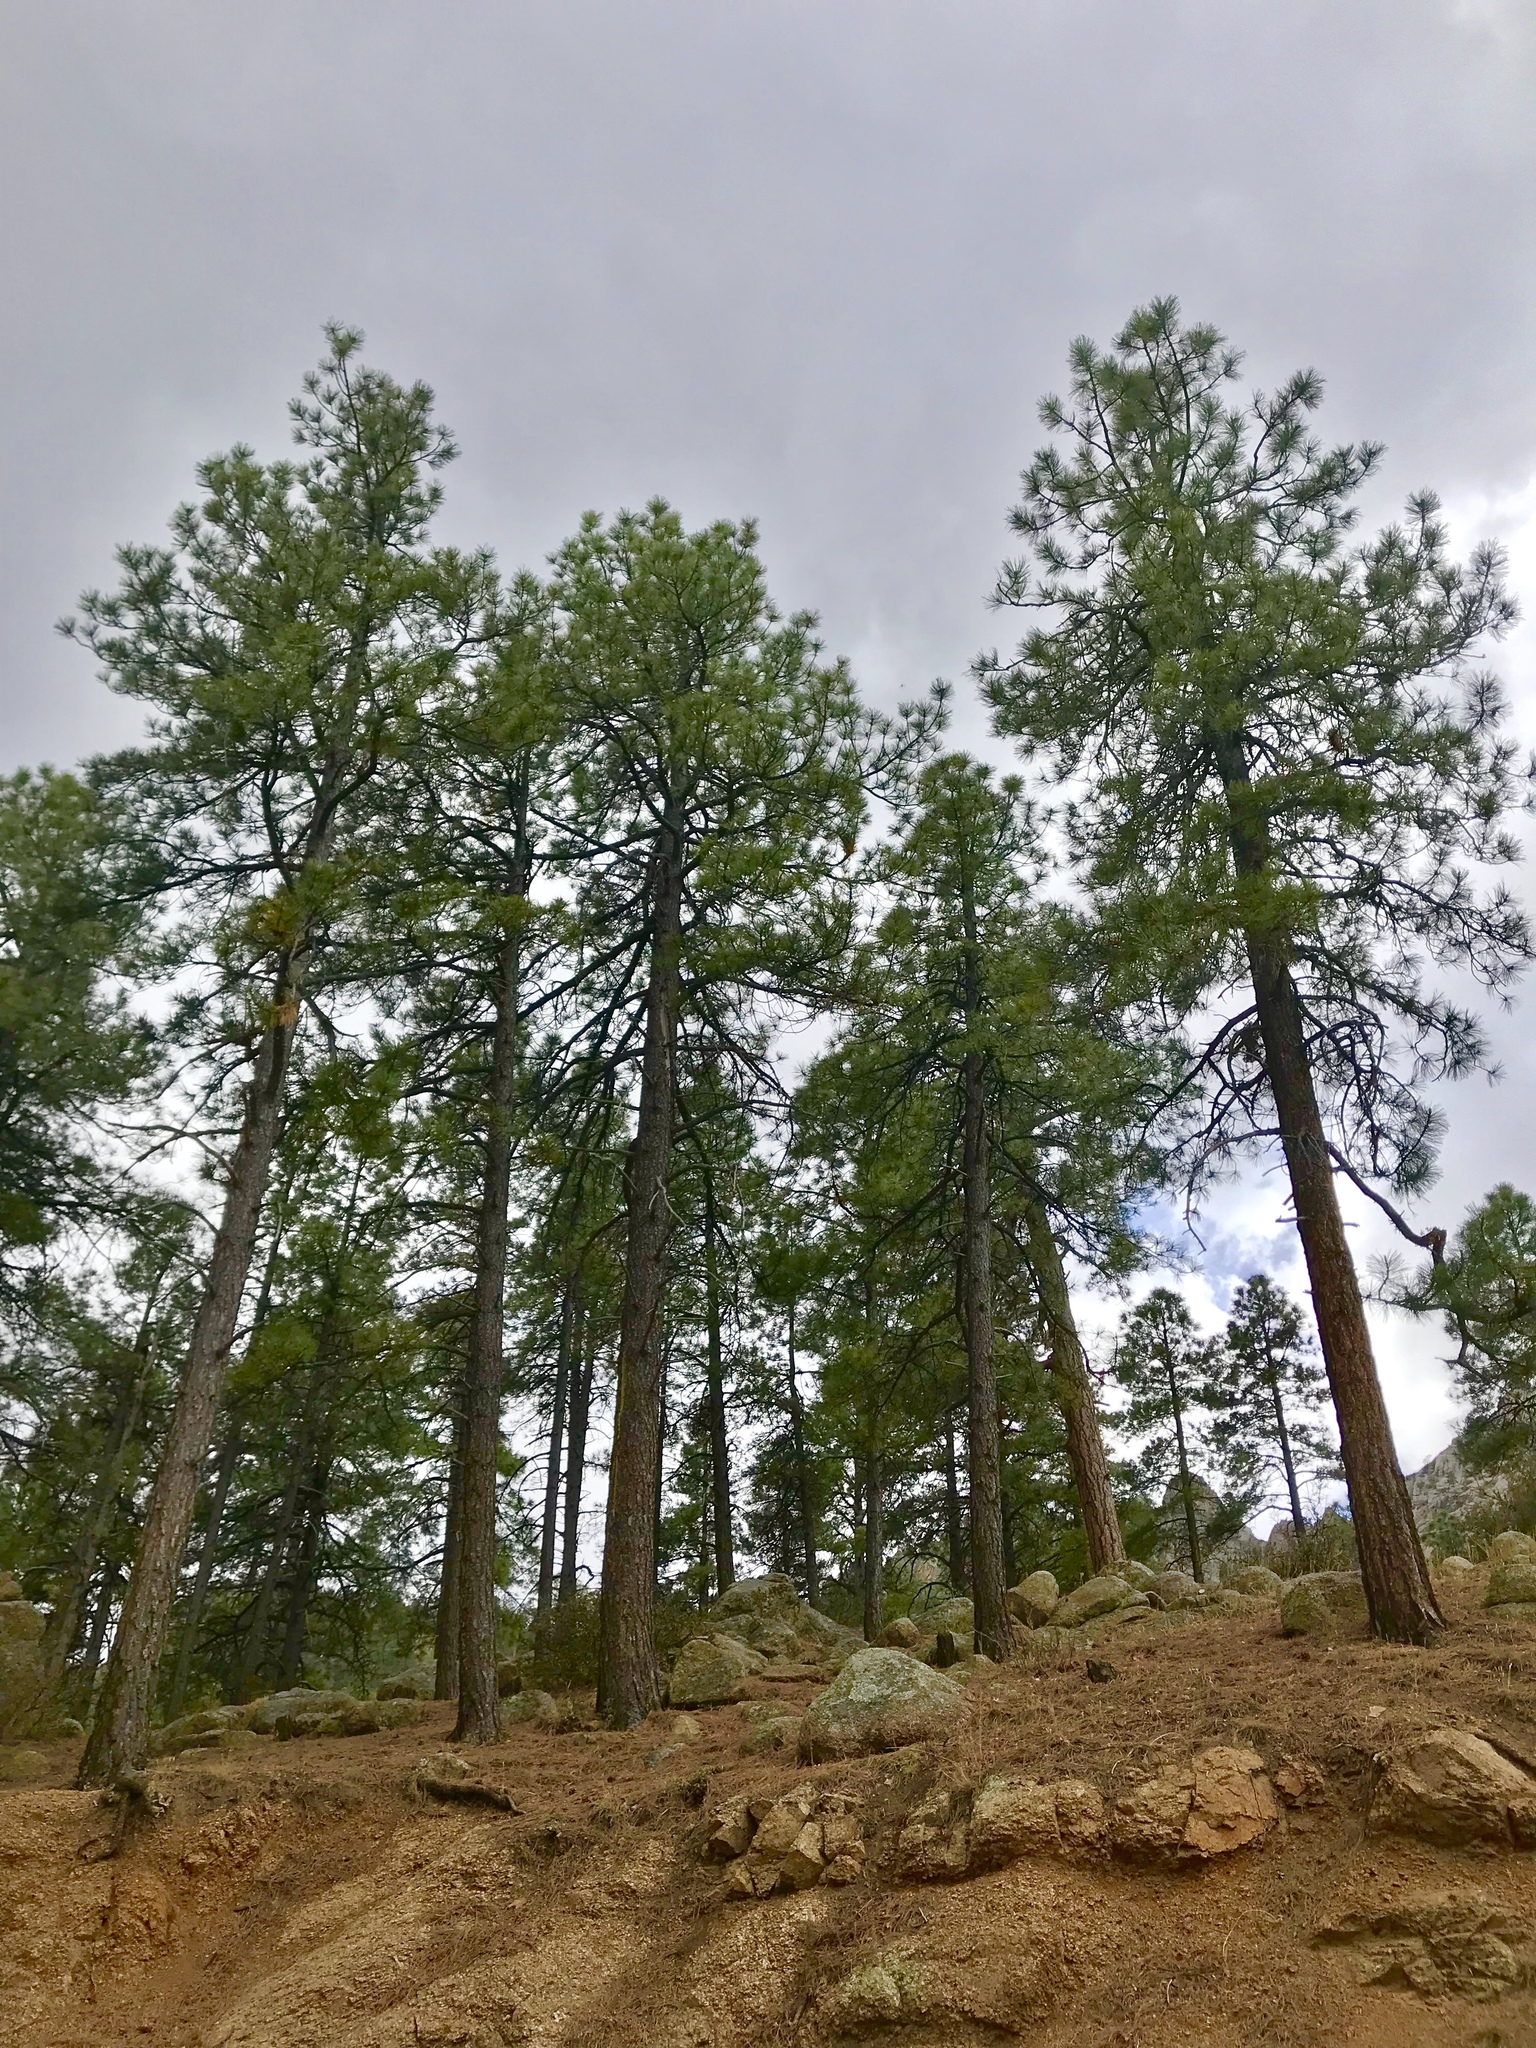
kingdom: Plantae
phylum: Tracheophyta
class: Pinopsida
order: Pinales
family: Pinaceae
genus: Pinus
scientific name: Pinus ponderosa
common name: Western yellow-pine
